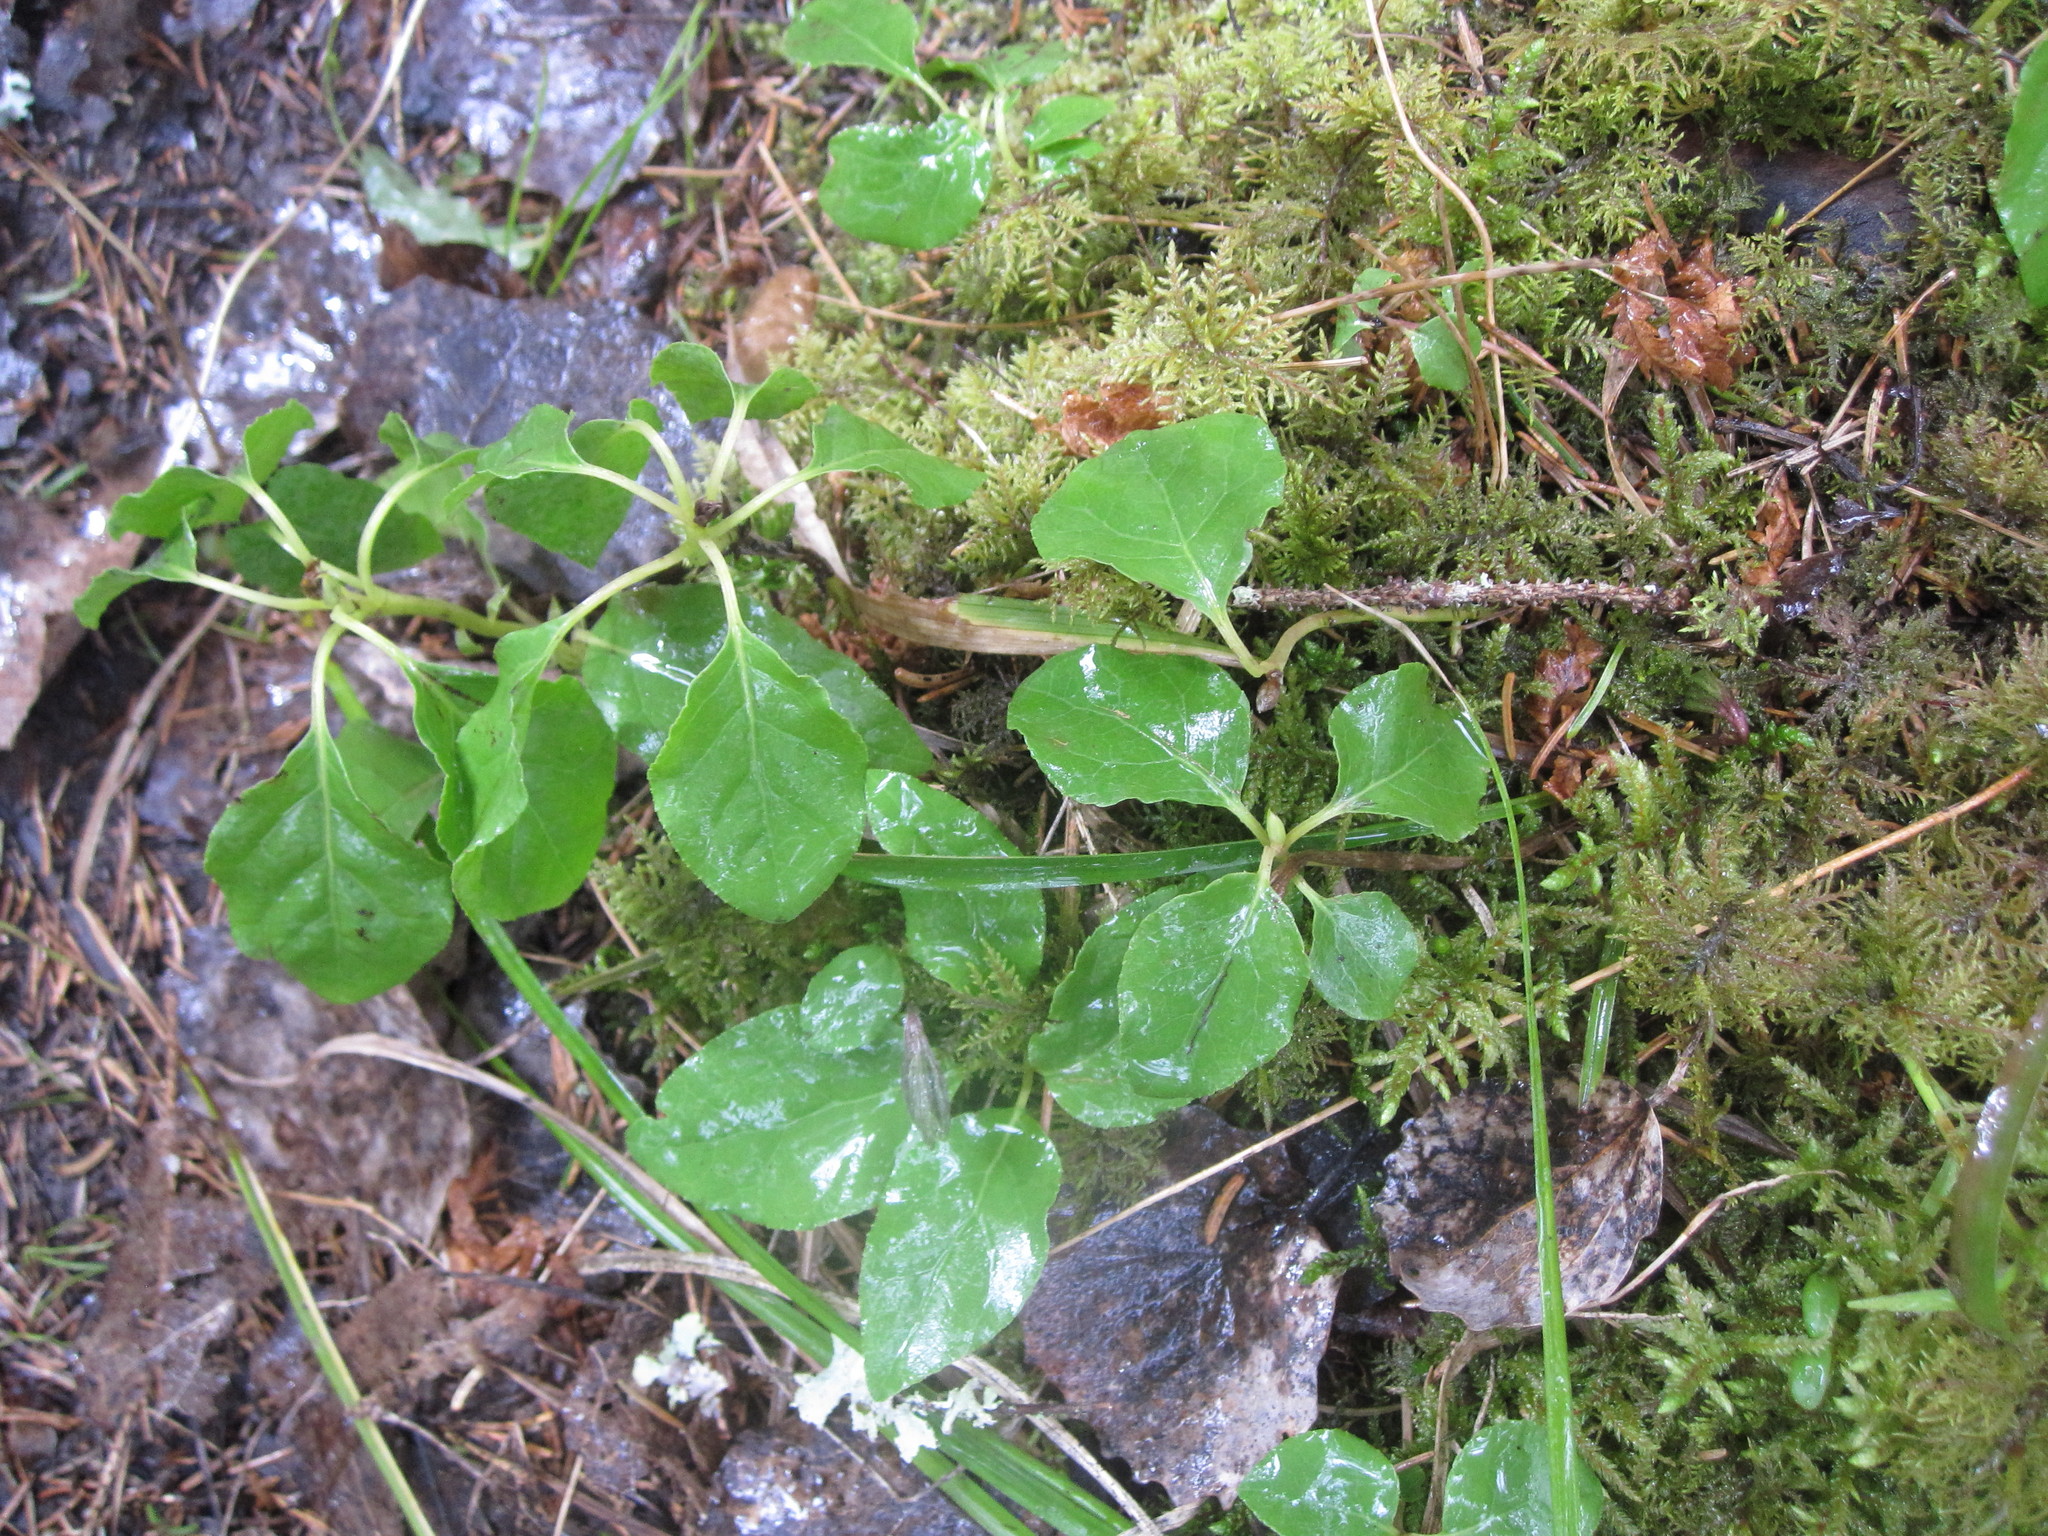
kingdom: Plantae
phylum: Tracheophyta
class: Magnoliopsida
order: Ericales
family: Ericaceae
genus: Orthilia
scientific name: Orthilia secunda
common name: One-sided orthilia
